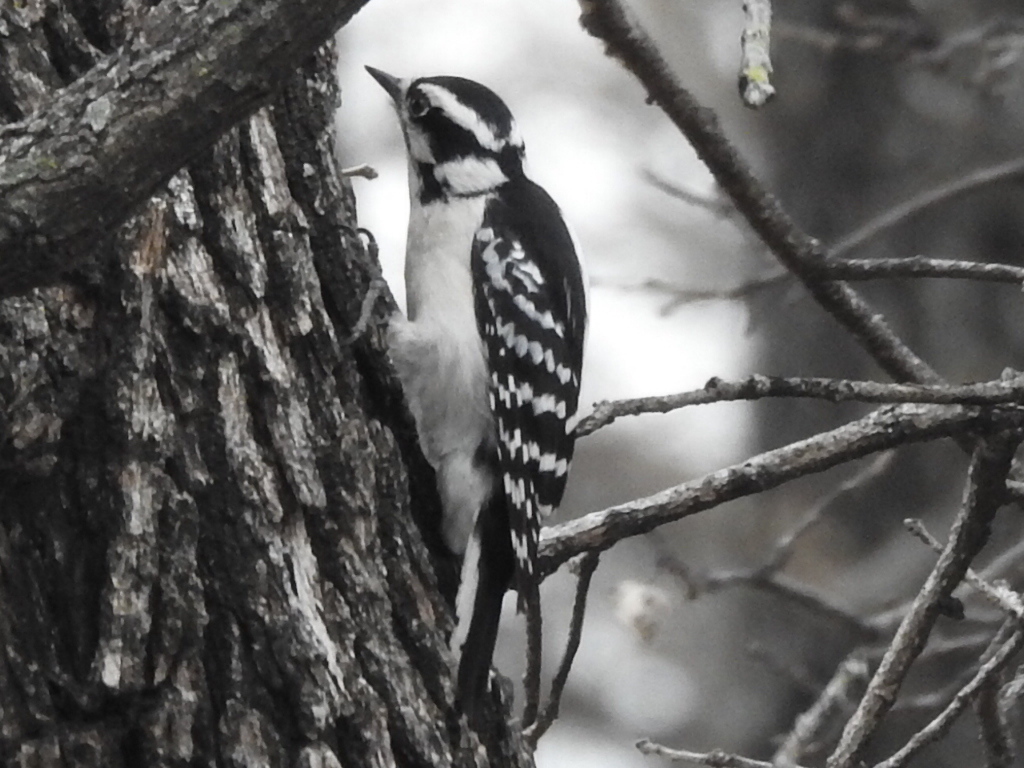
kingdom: Animalia
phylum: Chordata
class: Aves
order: Piciformes
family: Picidae
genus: Dryobates
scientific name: Dryobates pubescens
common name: Downy woodpecker
